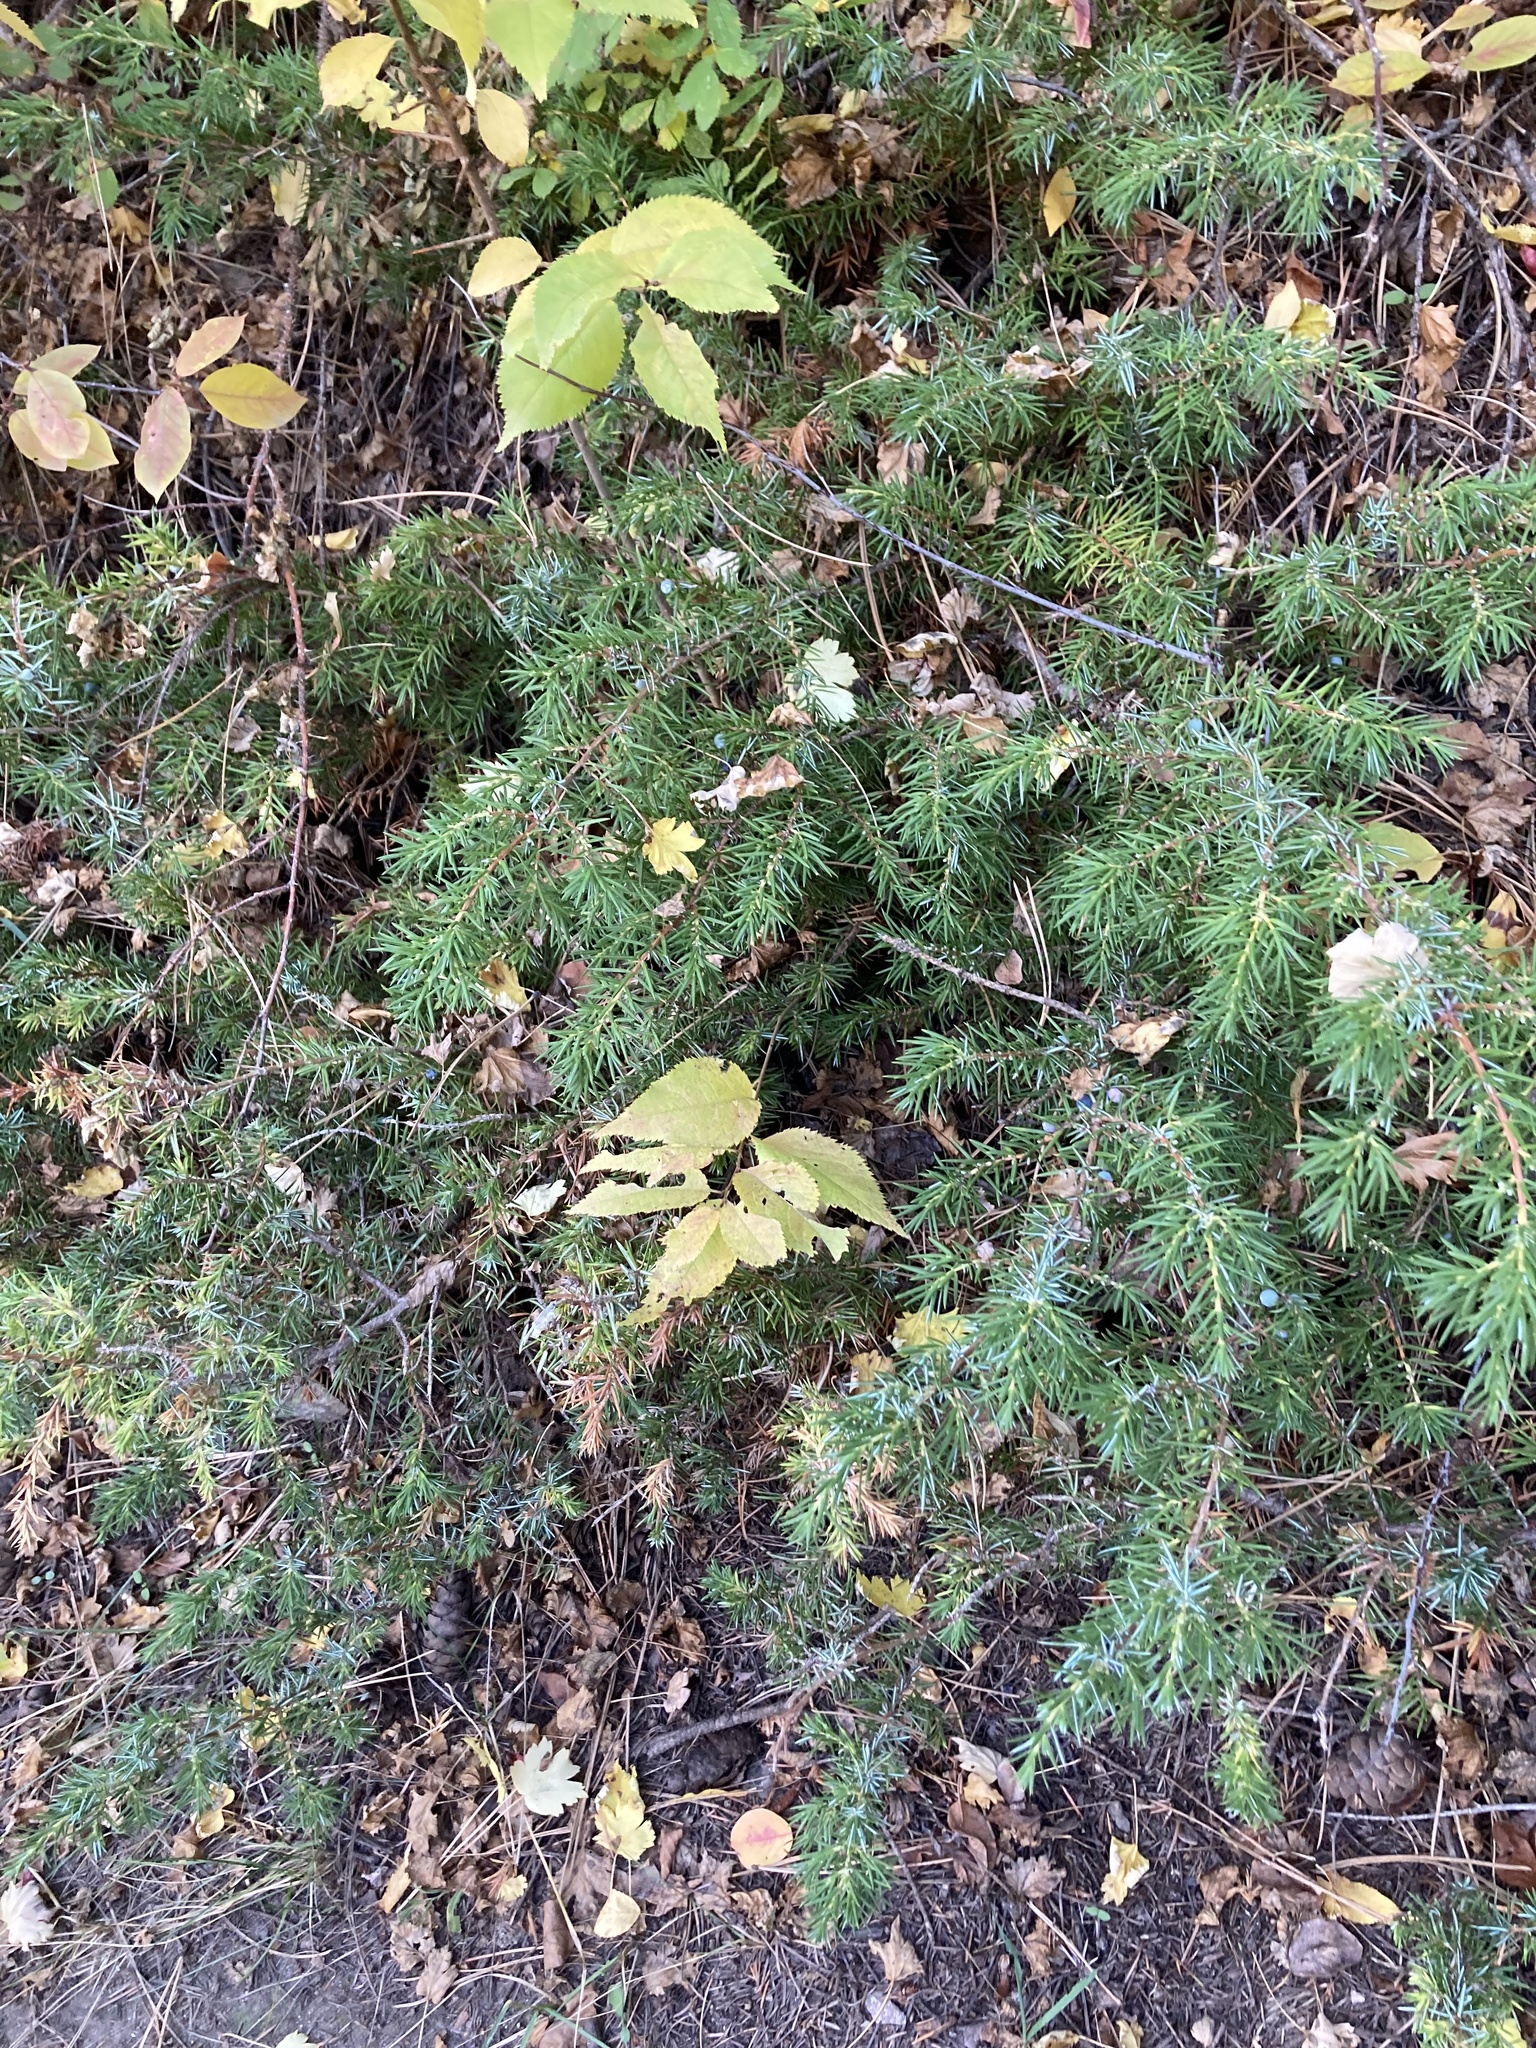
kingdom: Plantae
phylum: Tracheophyta
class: Pinopsida
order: Pinales
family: Cupressaceae
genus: Juniperus
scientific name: Juniperus communis
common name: Common juniper
